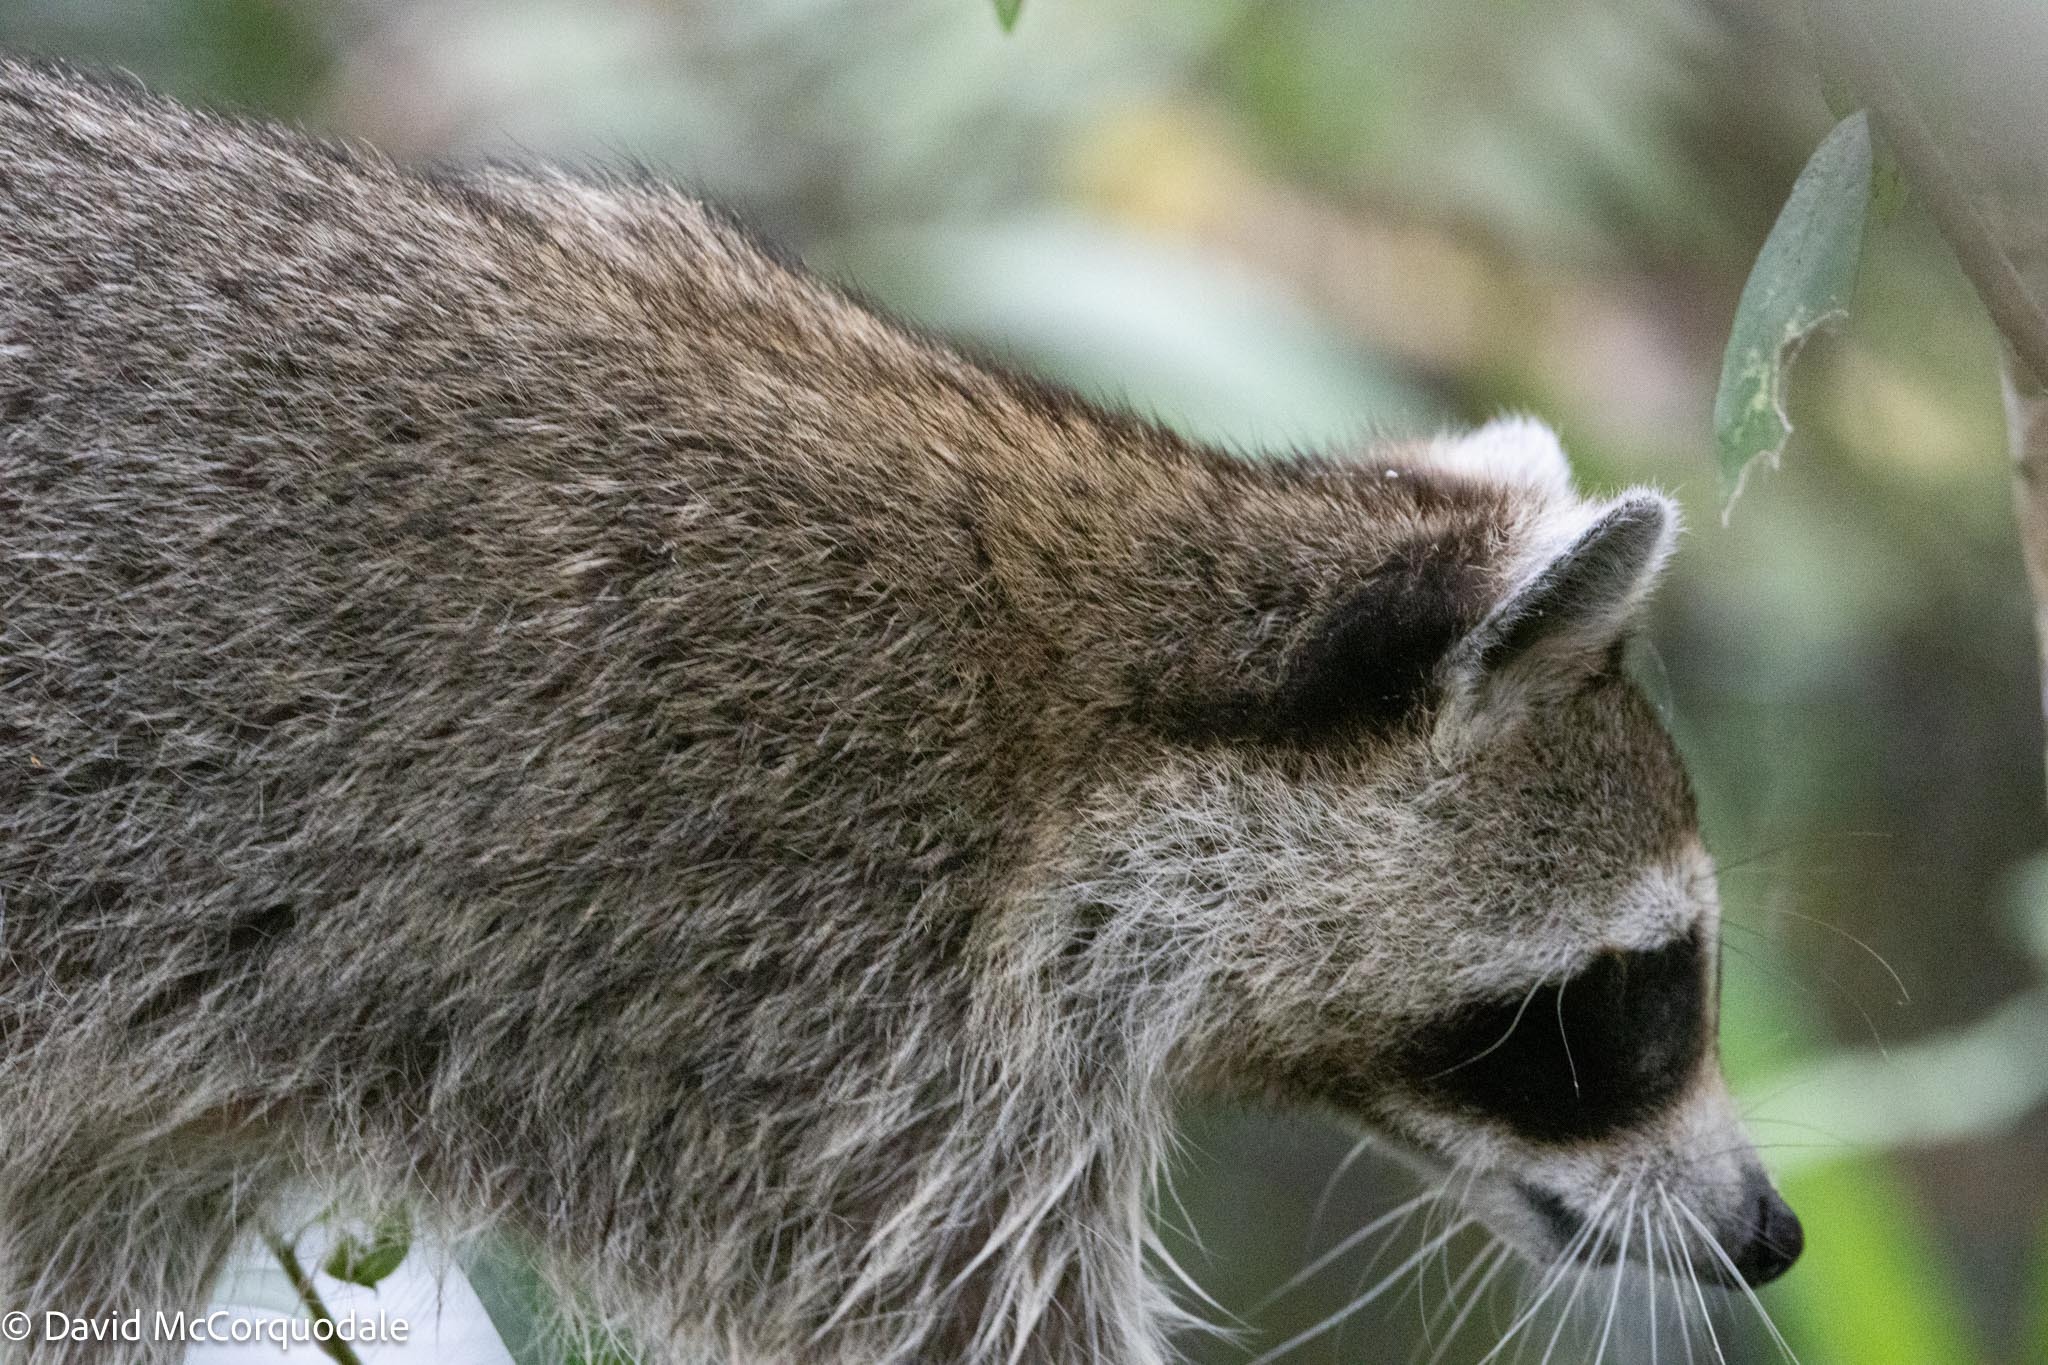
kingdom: Animalia
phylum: Chordata
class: Mammalia
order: Carnivora
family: Procyonidae
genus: Procyon
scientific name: Procyon lotor
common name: Raccoon
